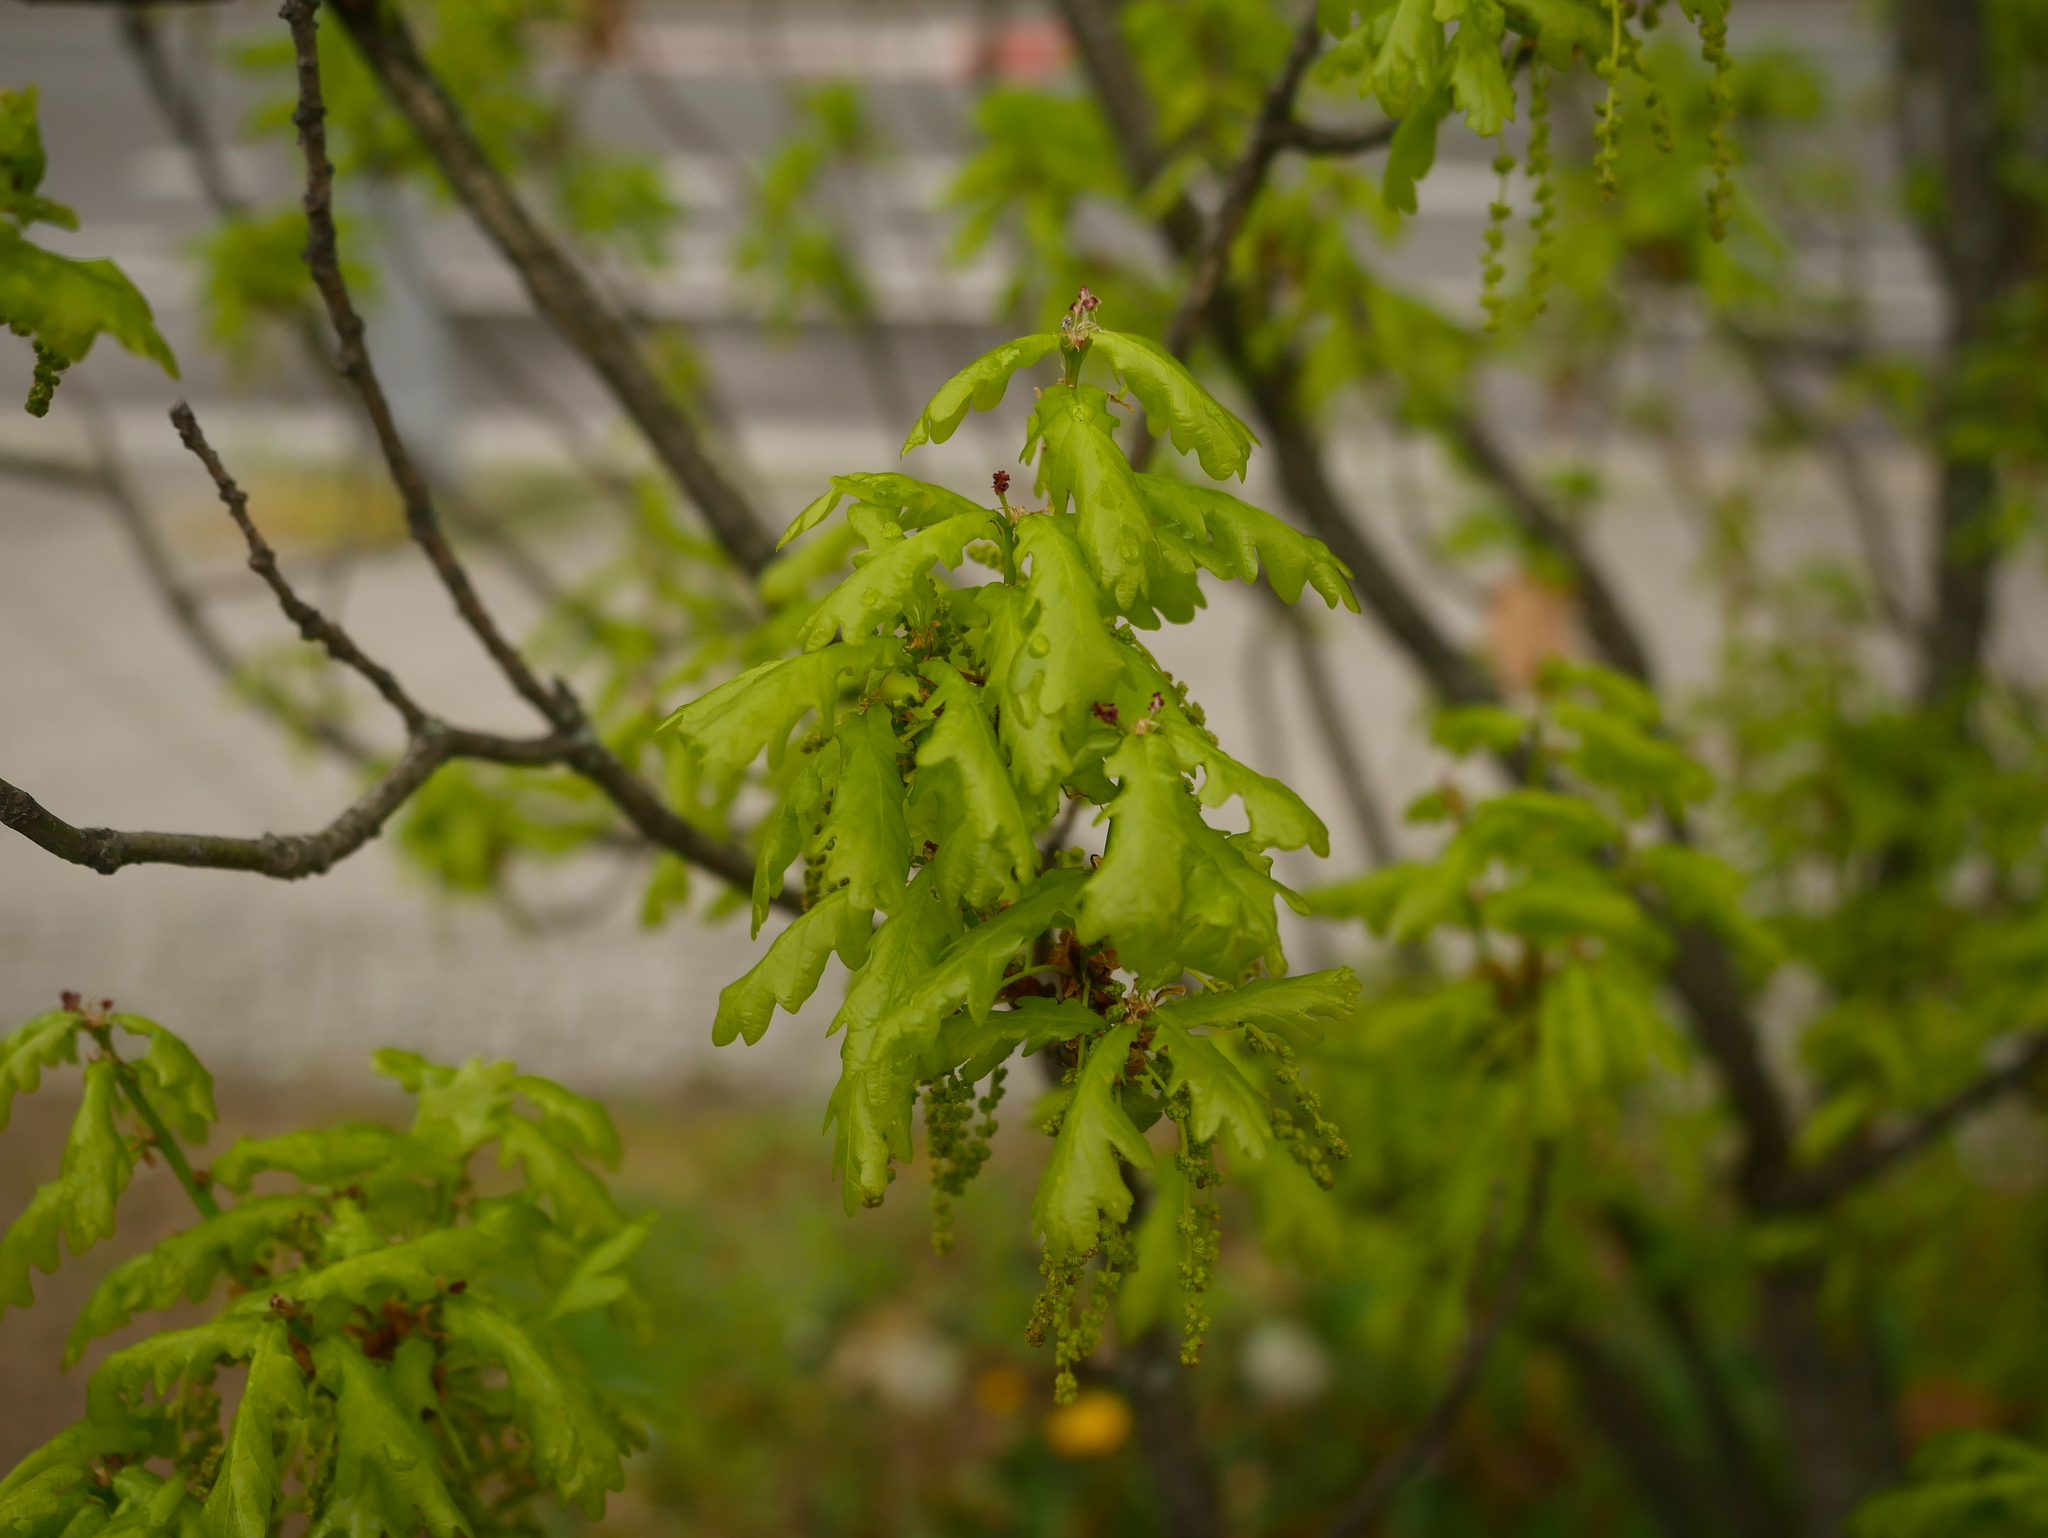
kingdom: Plantae
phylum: Tracheophyta
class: Magnoliopsida
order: Fagales
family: Fagaceae
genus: Quercus
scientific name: Quercus robur
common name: Pedunculate oak
